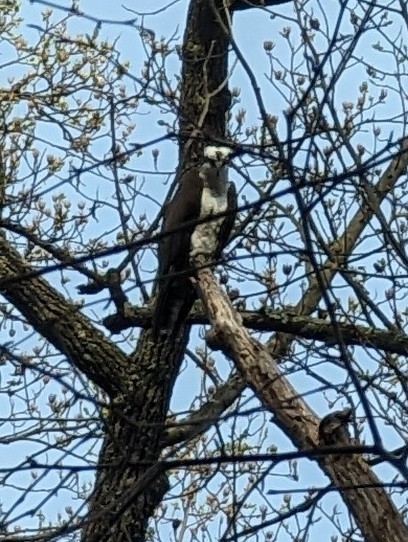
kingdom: Animalia
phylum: Chordata
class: Aves
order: Accipitriformes
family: Pandionidae
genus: Pandion
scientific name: Pandion haliaetus
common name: Osprey
